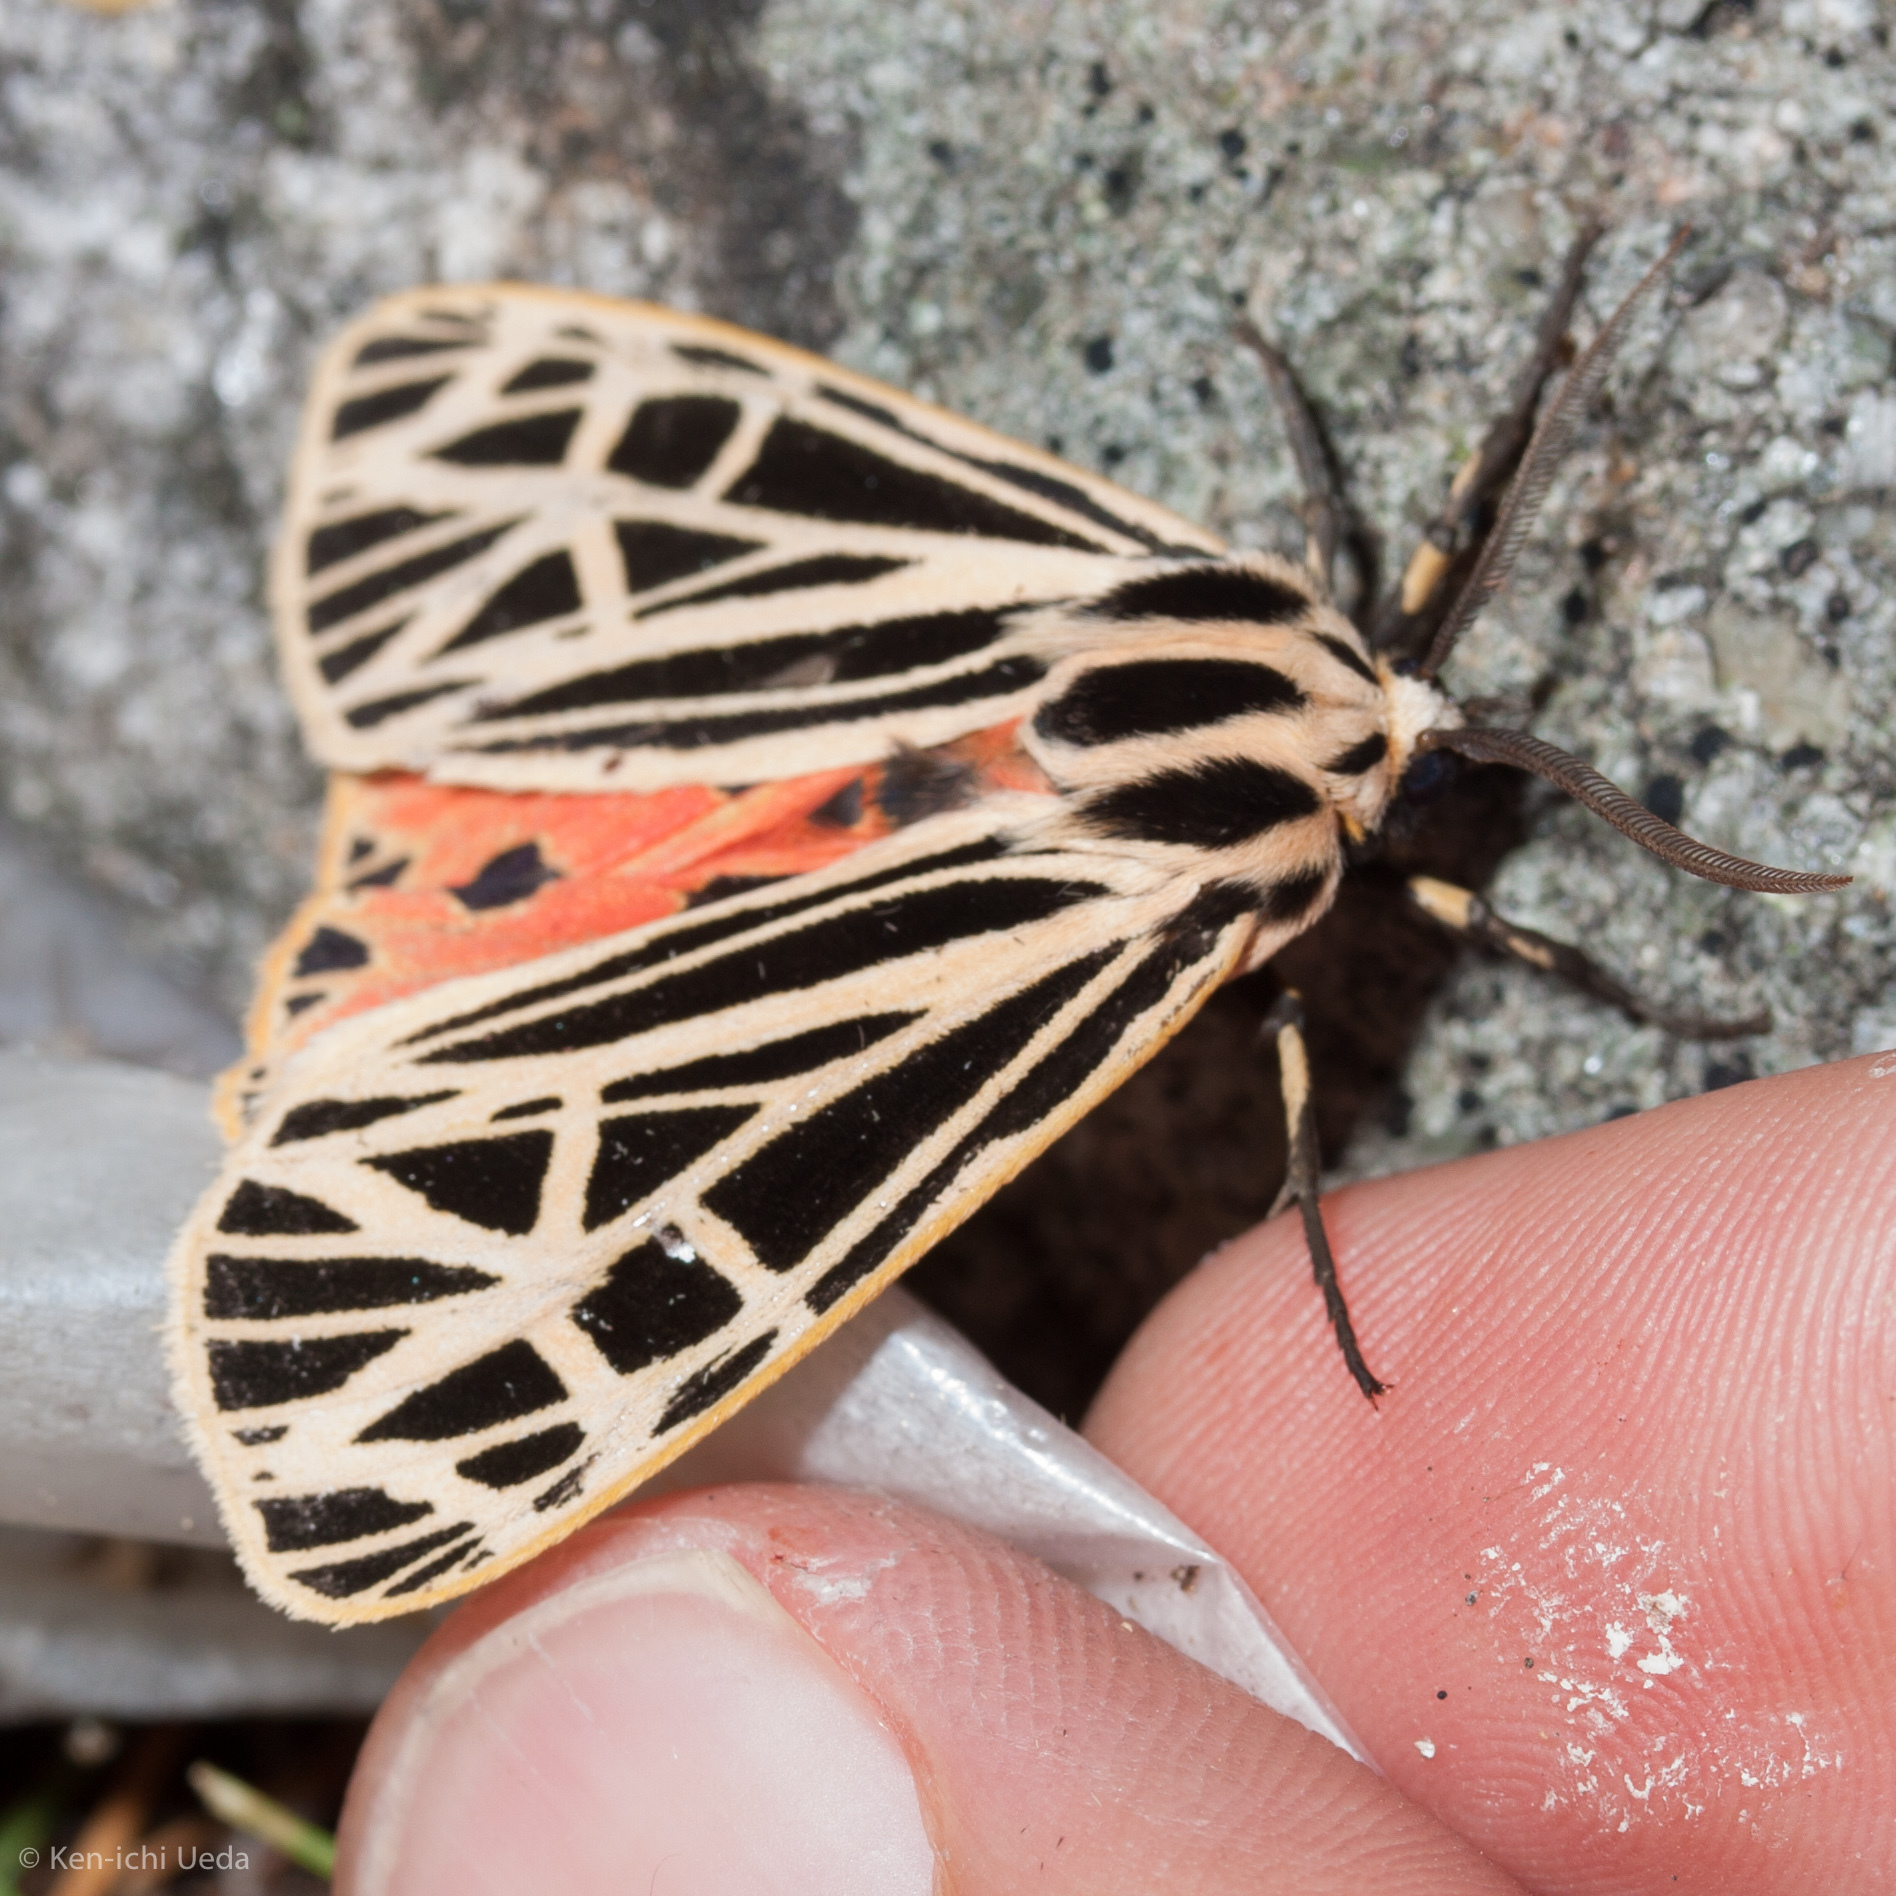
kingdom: Animalia
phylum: Arthropoda
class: Insecta
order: Lepidoptera
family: Erebidae
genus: Grammia
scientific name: Grammia virgo
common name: Virgin tiger moth
